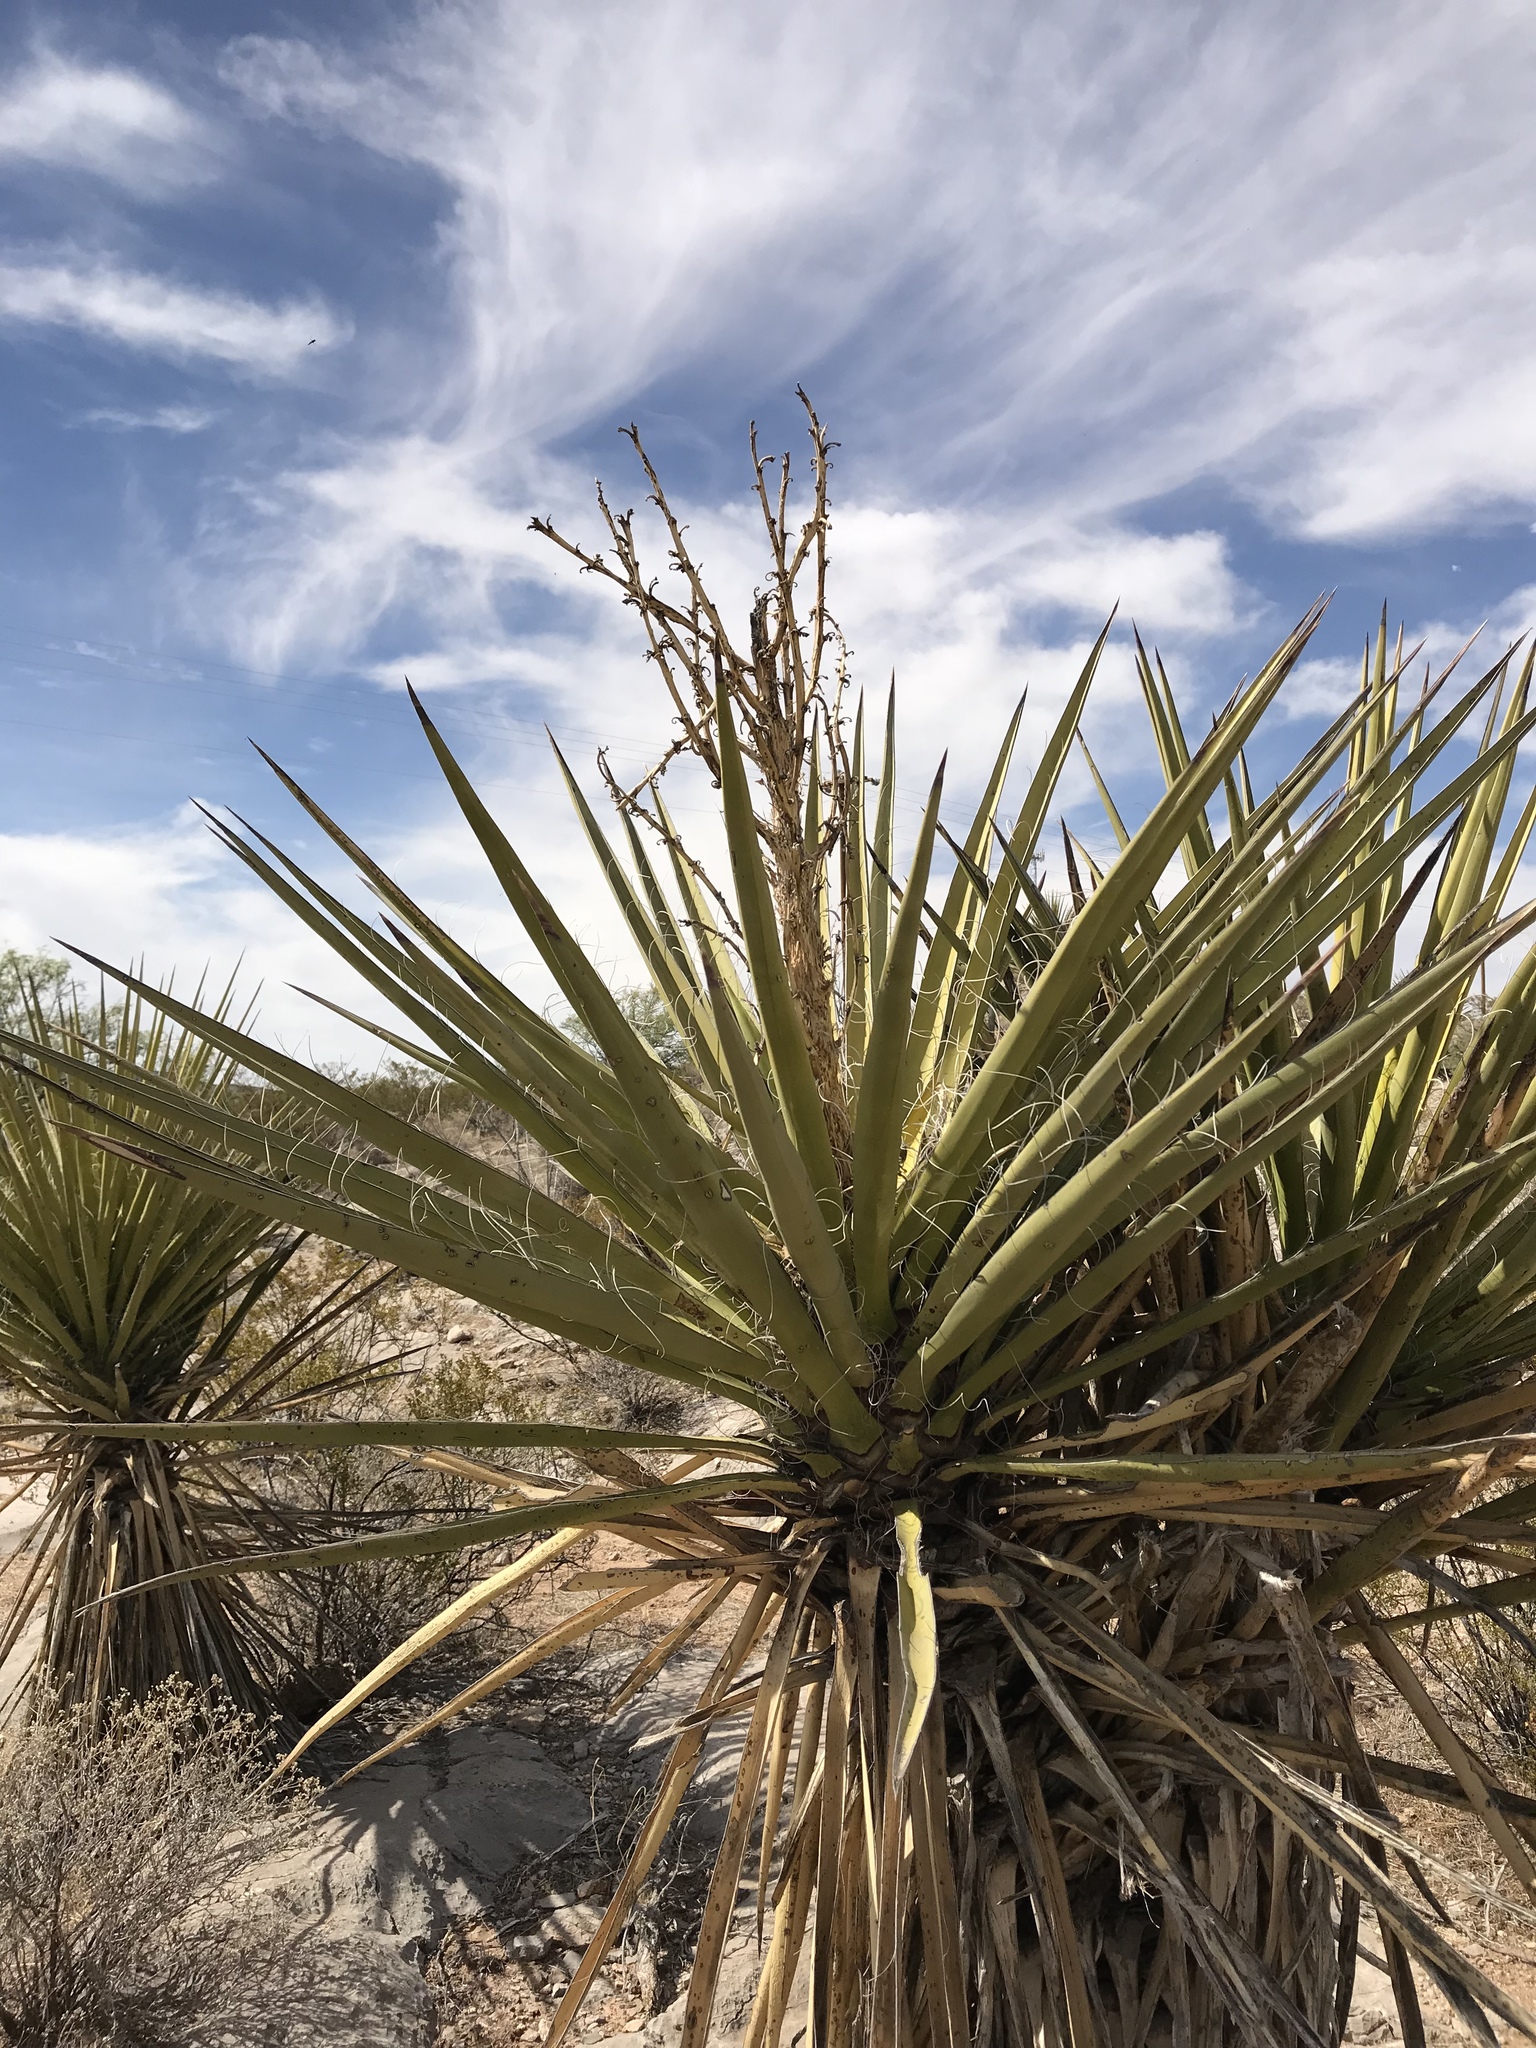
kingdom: Plantae
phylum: Tracheophyta
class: Liliopsida
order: Asparagales
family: Asparagaceae
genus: Yucca
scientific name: Yucca treculiana
